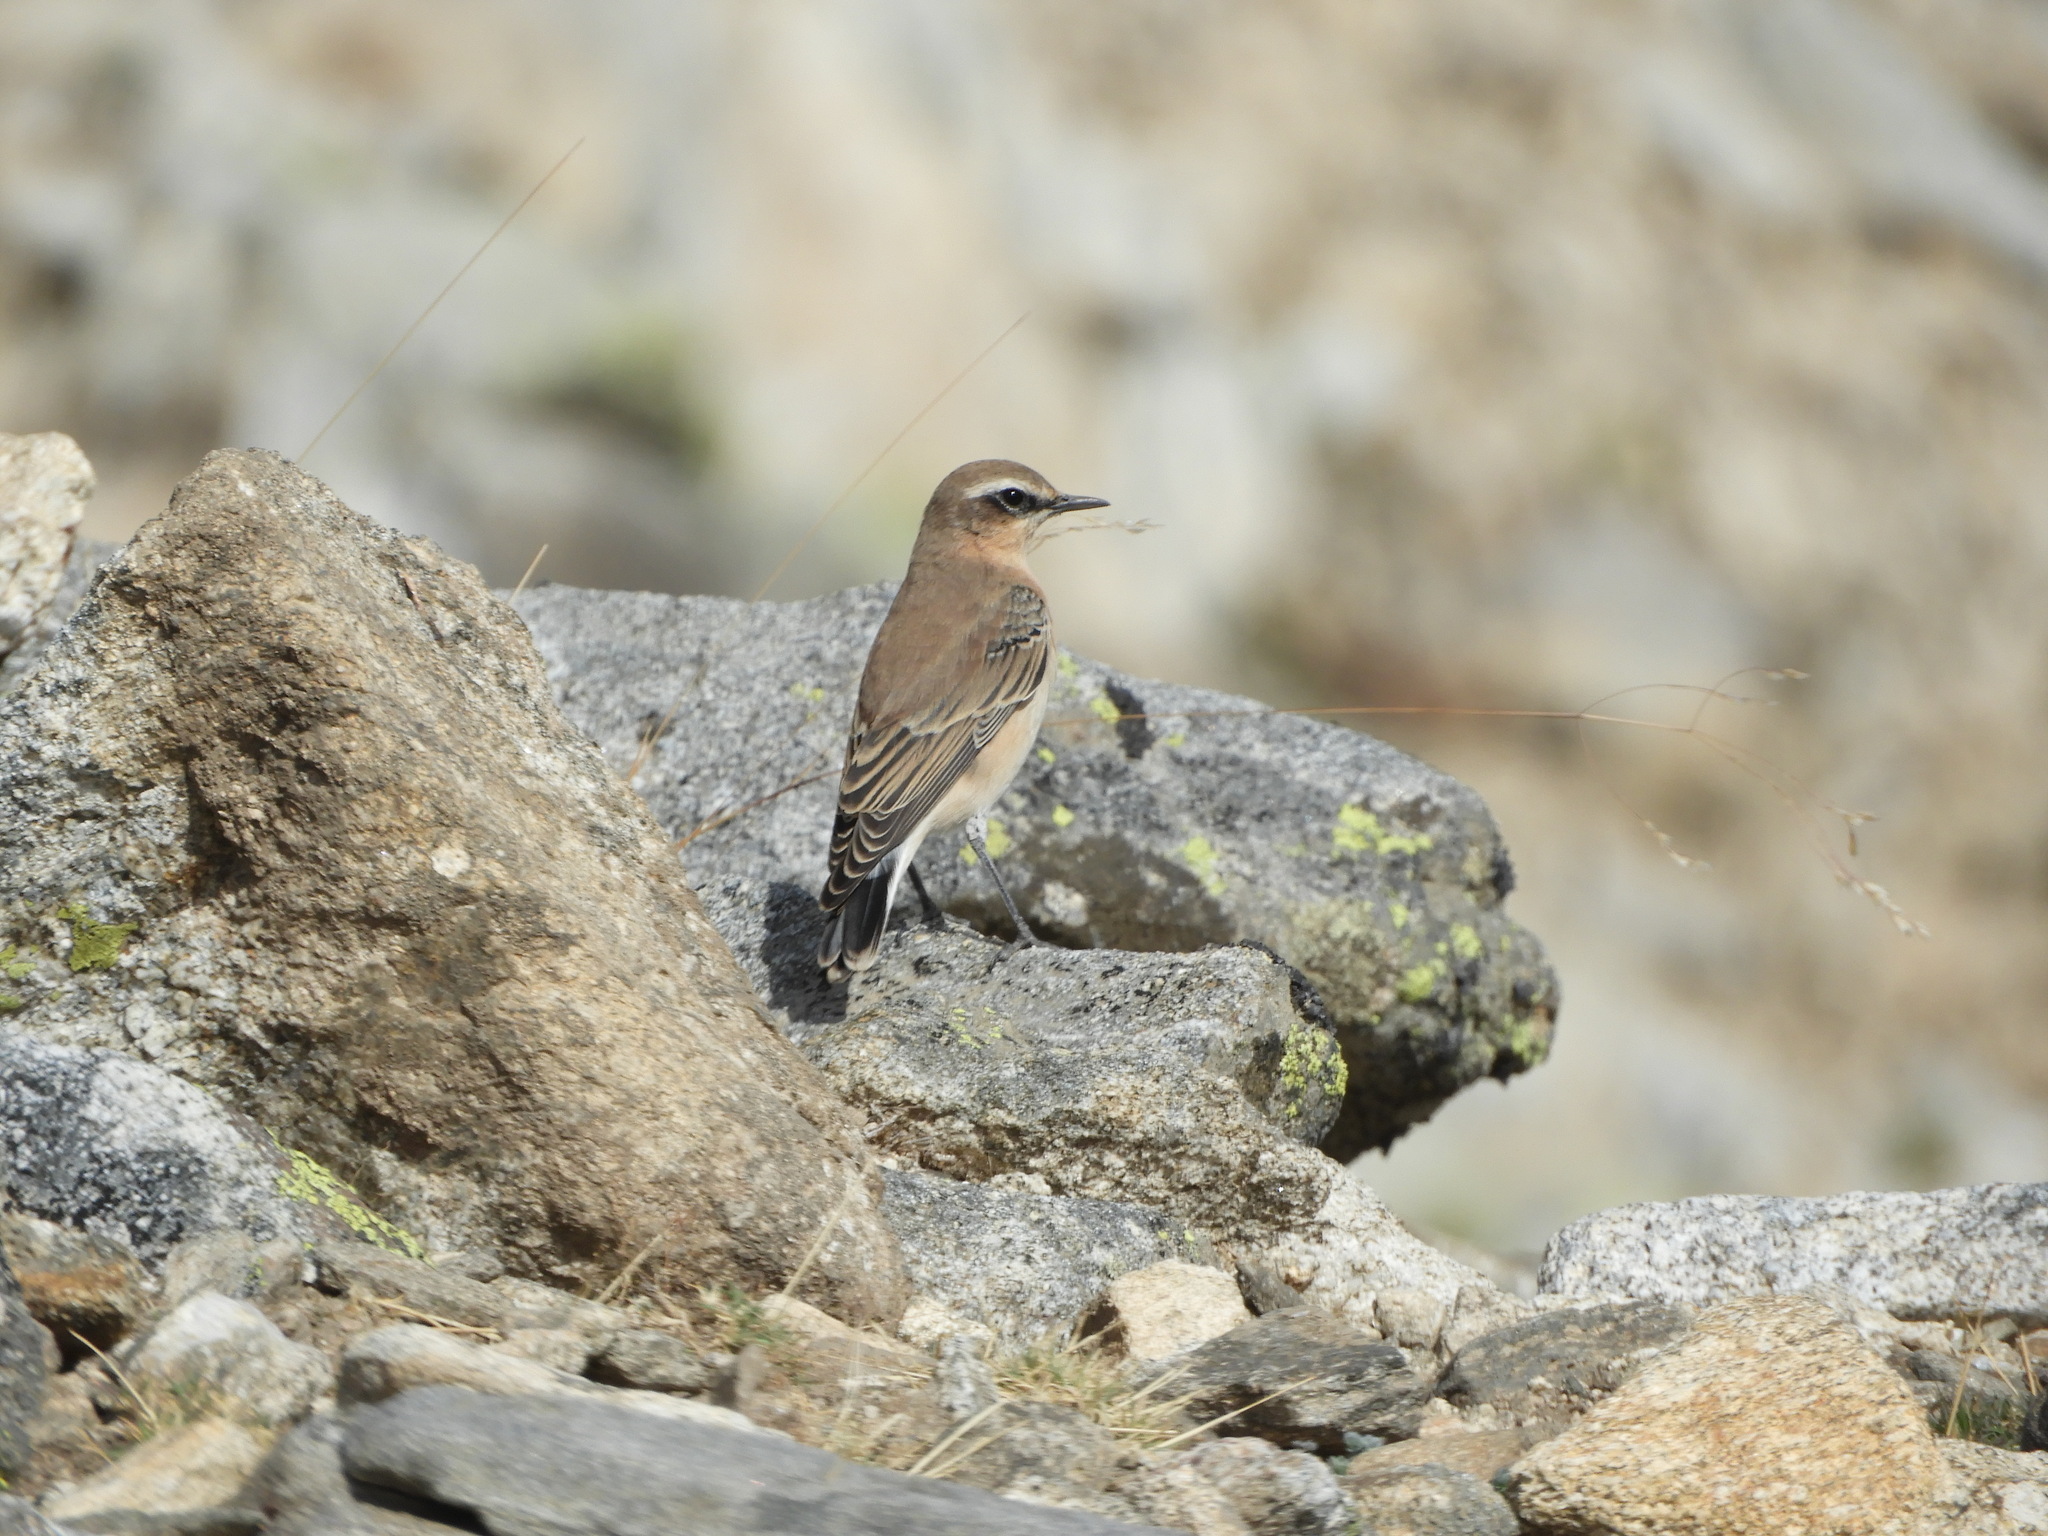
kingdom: Animalia
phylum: Chordata
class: Aves
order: Passeriformes
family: Muscicapidae
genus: Oenanthe
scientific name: Oenanthe oenanthe
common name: Northern wheatear
